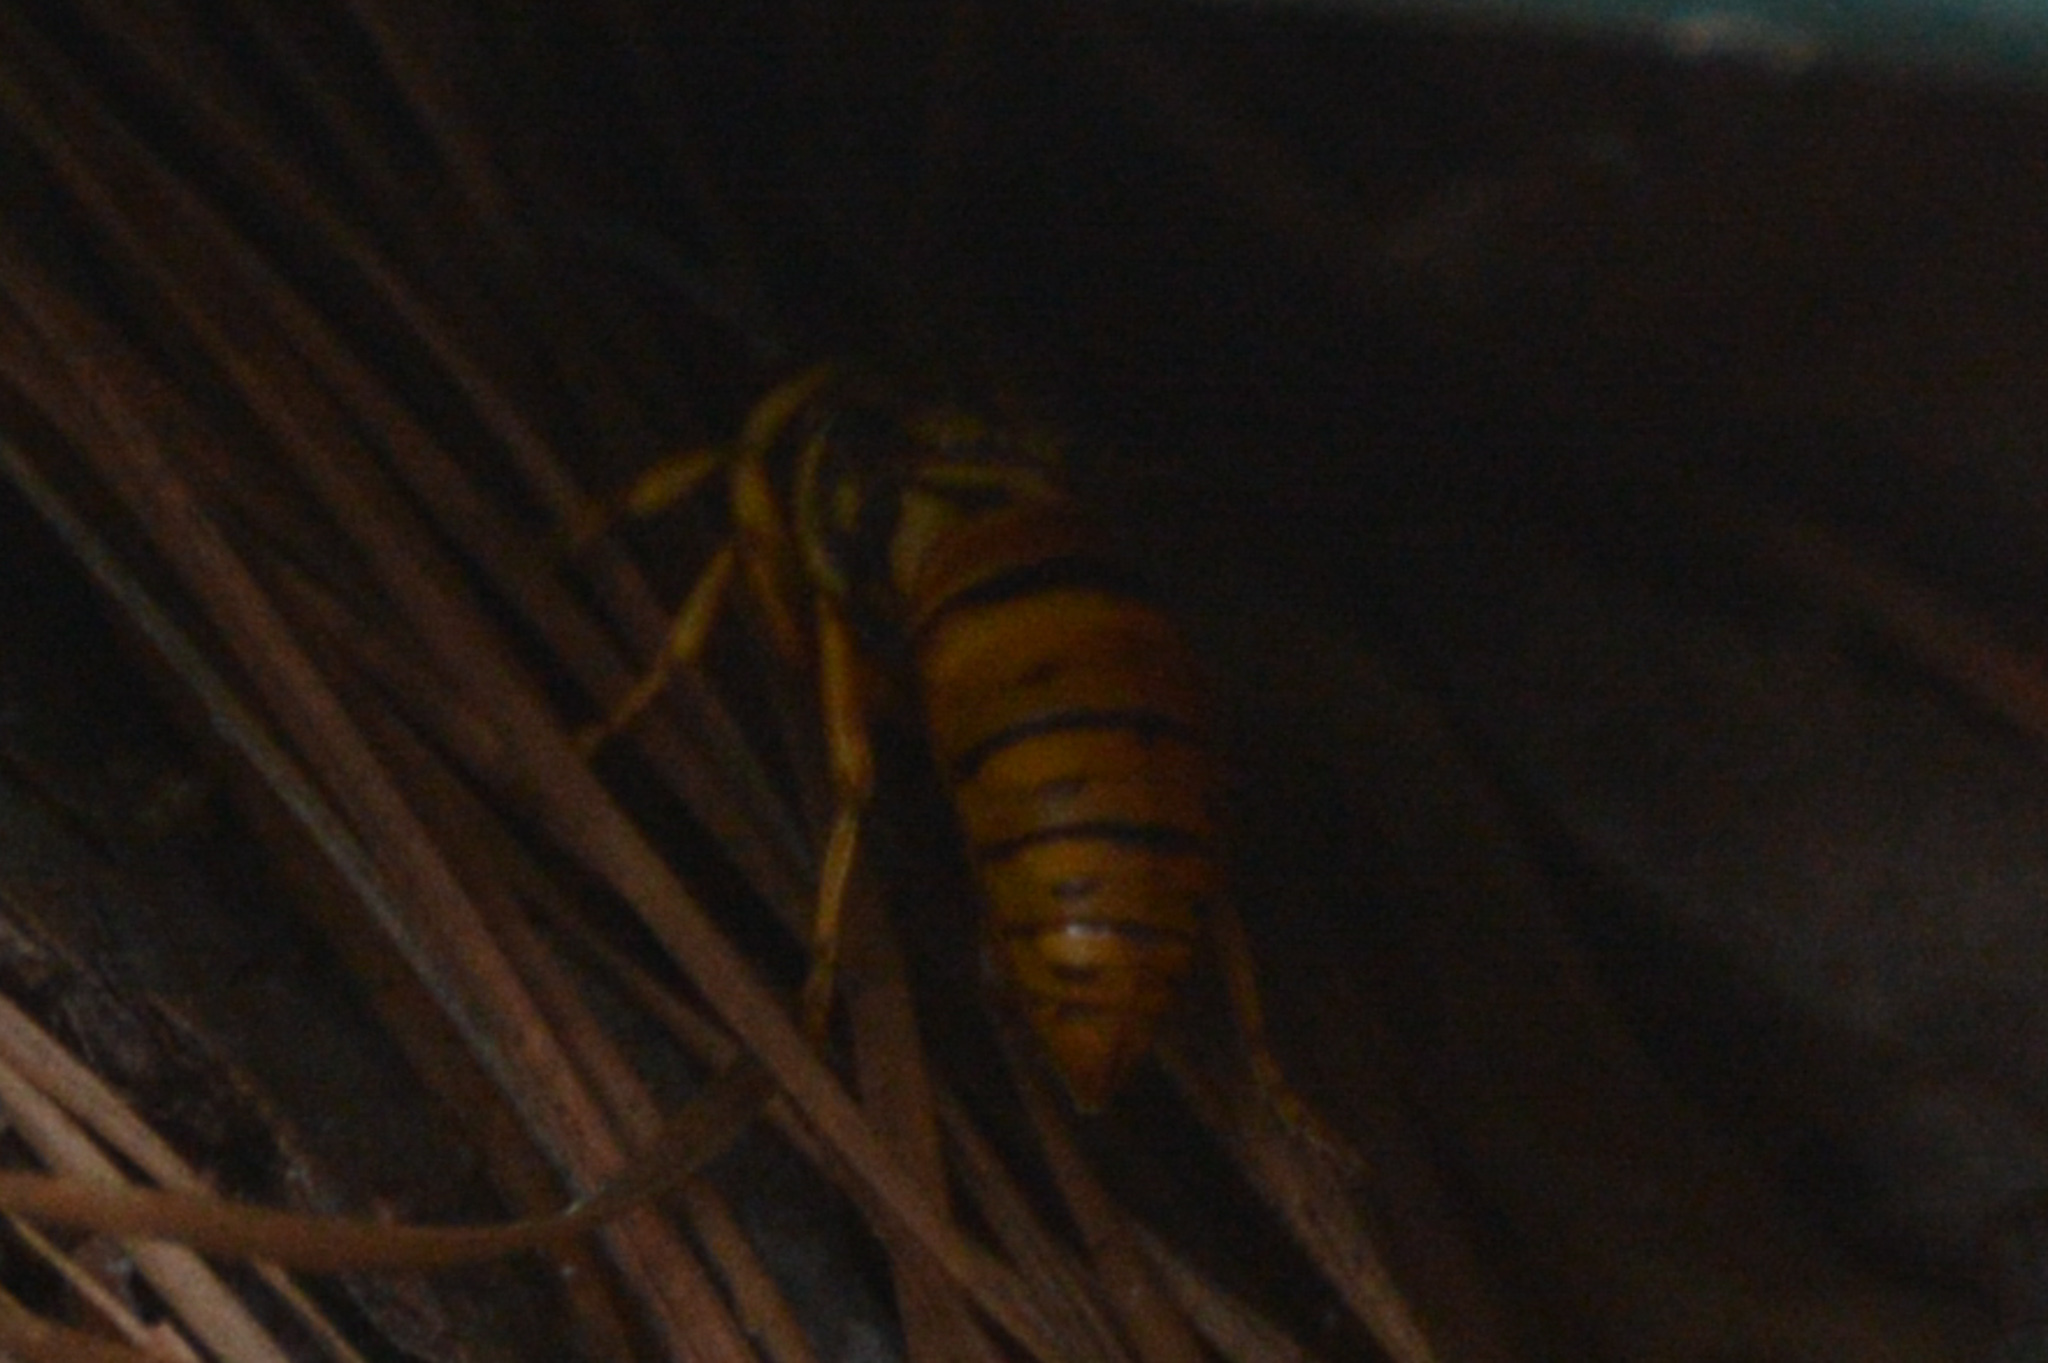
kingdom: Animalia
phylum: Arthropoda
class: Insecta
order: Hymenoptera
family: Vespidae
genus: Vespula
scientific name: Vespula squamosa
